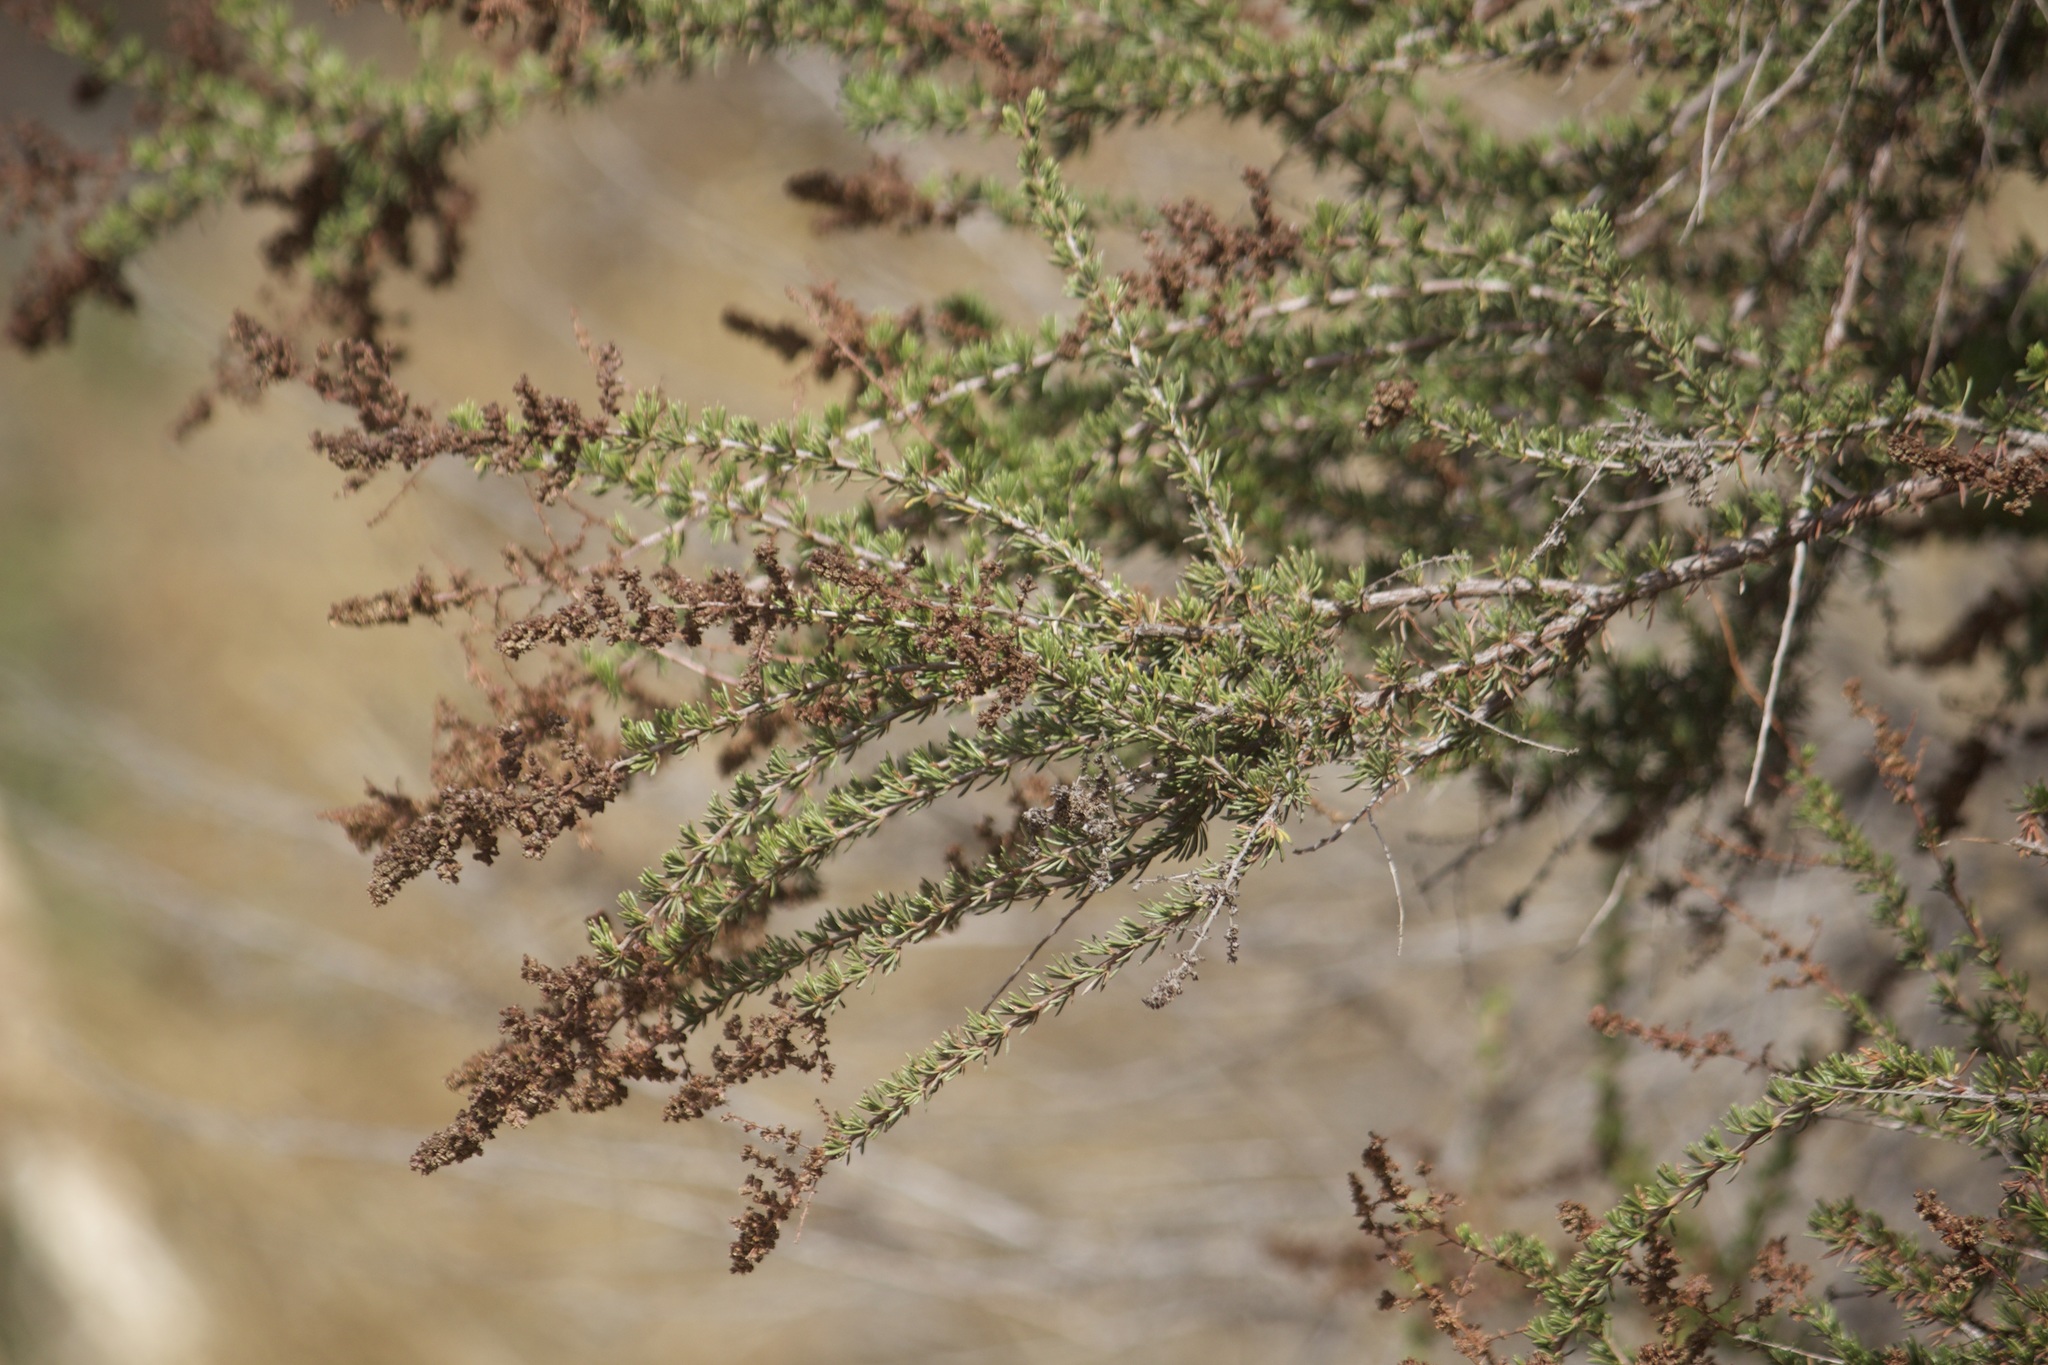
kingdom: Plantae
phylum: Tracheophyta
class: Magnoliopsida
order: Rosales
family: Rosaceae
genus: Adenostoma
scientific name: Adenostoma fasciculatum
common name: Chamise
